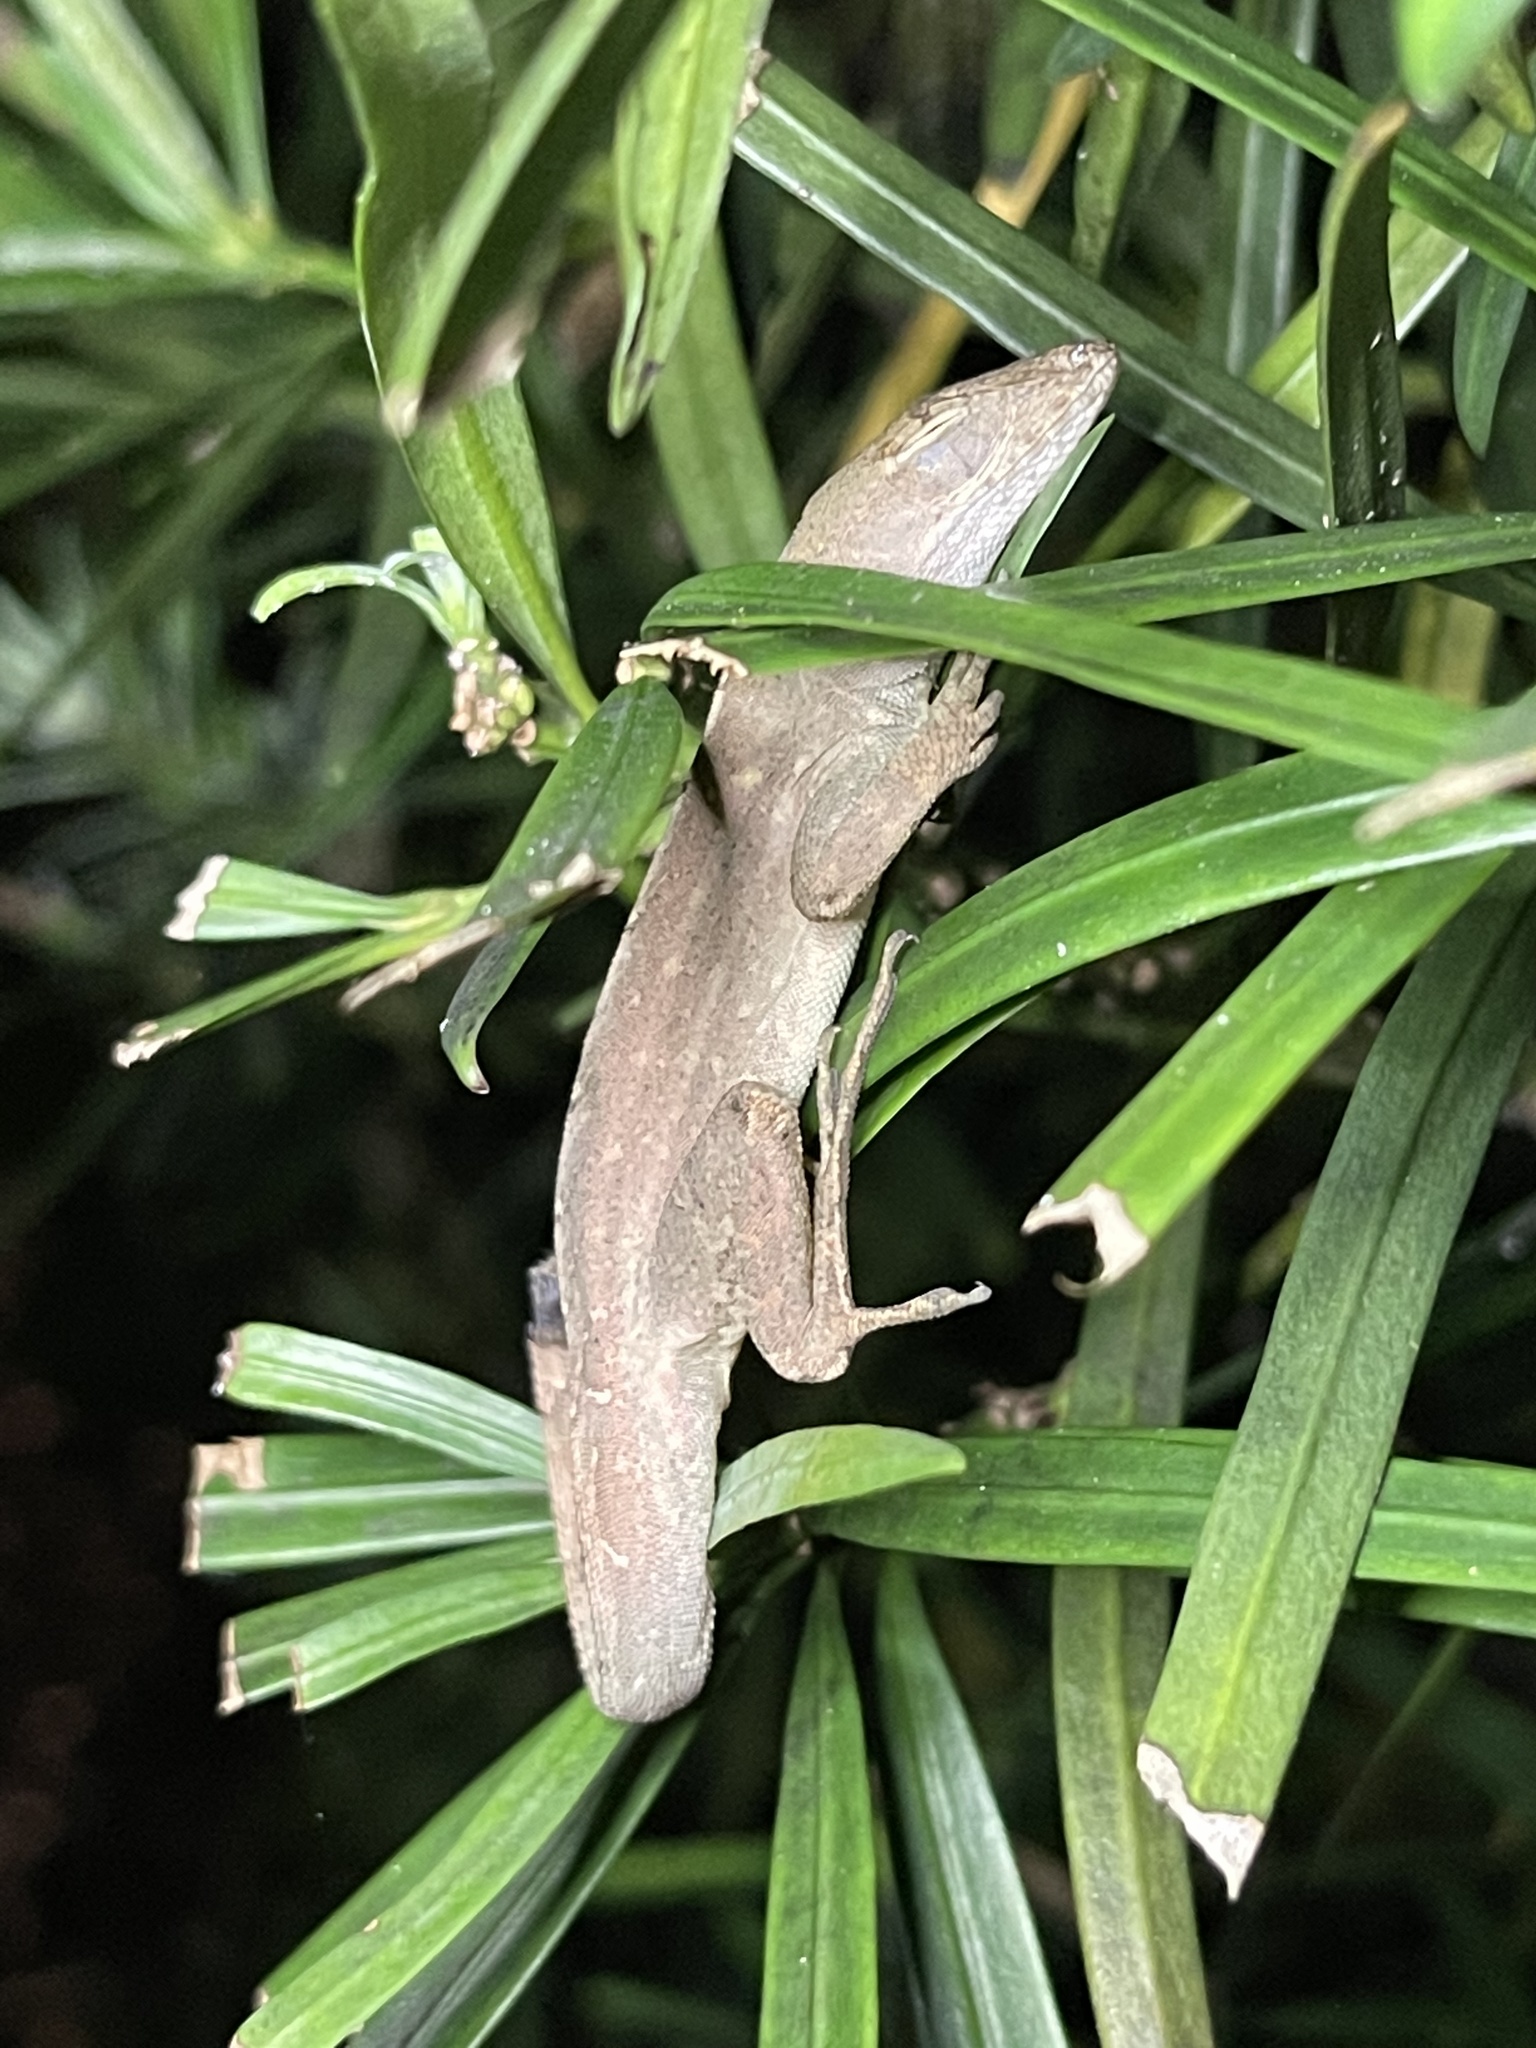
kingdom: Animalia
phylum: Chordata
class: Squamata
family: Dactyloidae
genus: Anolis
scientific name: Anolis sagrei
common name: Brown anole
